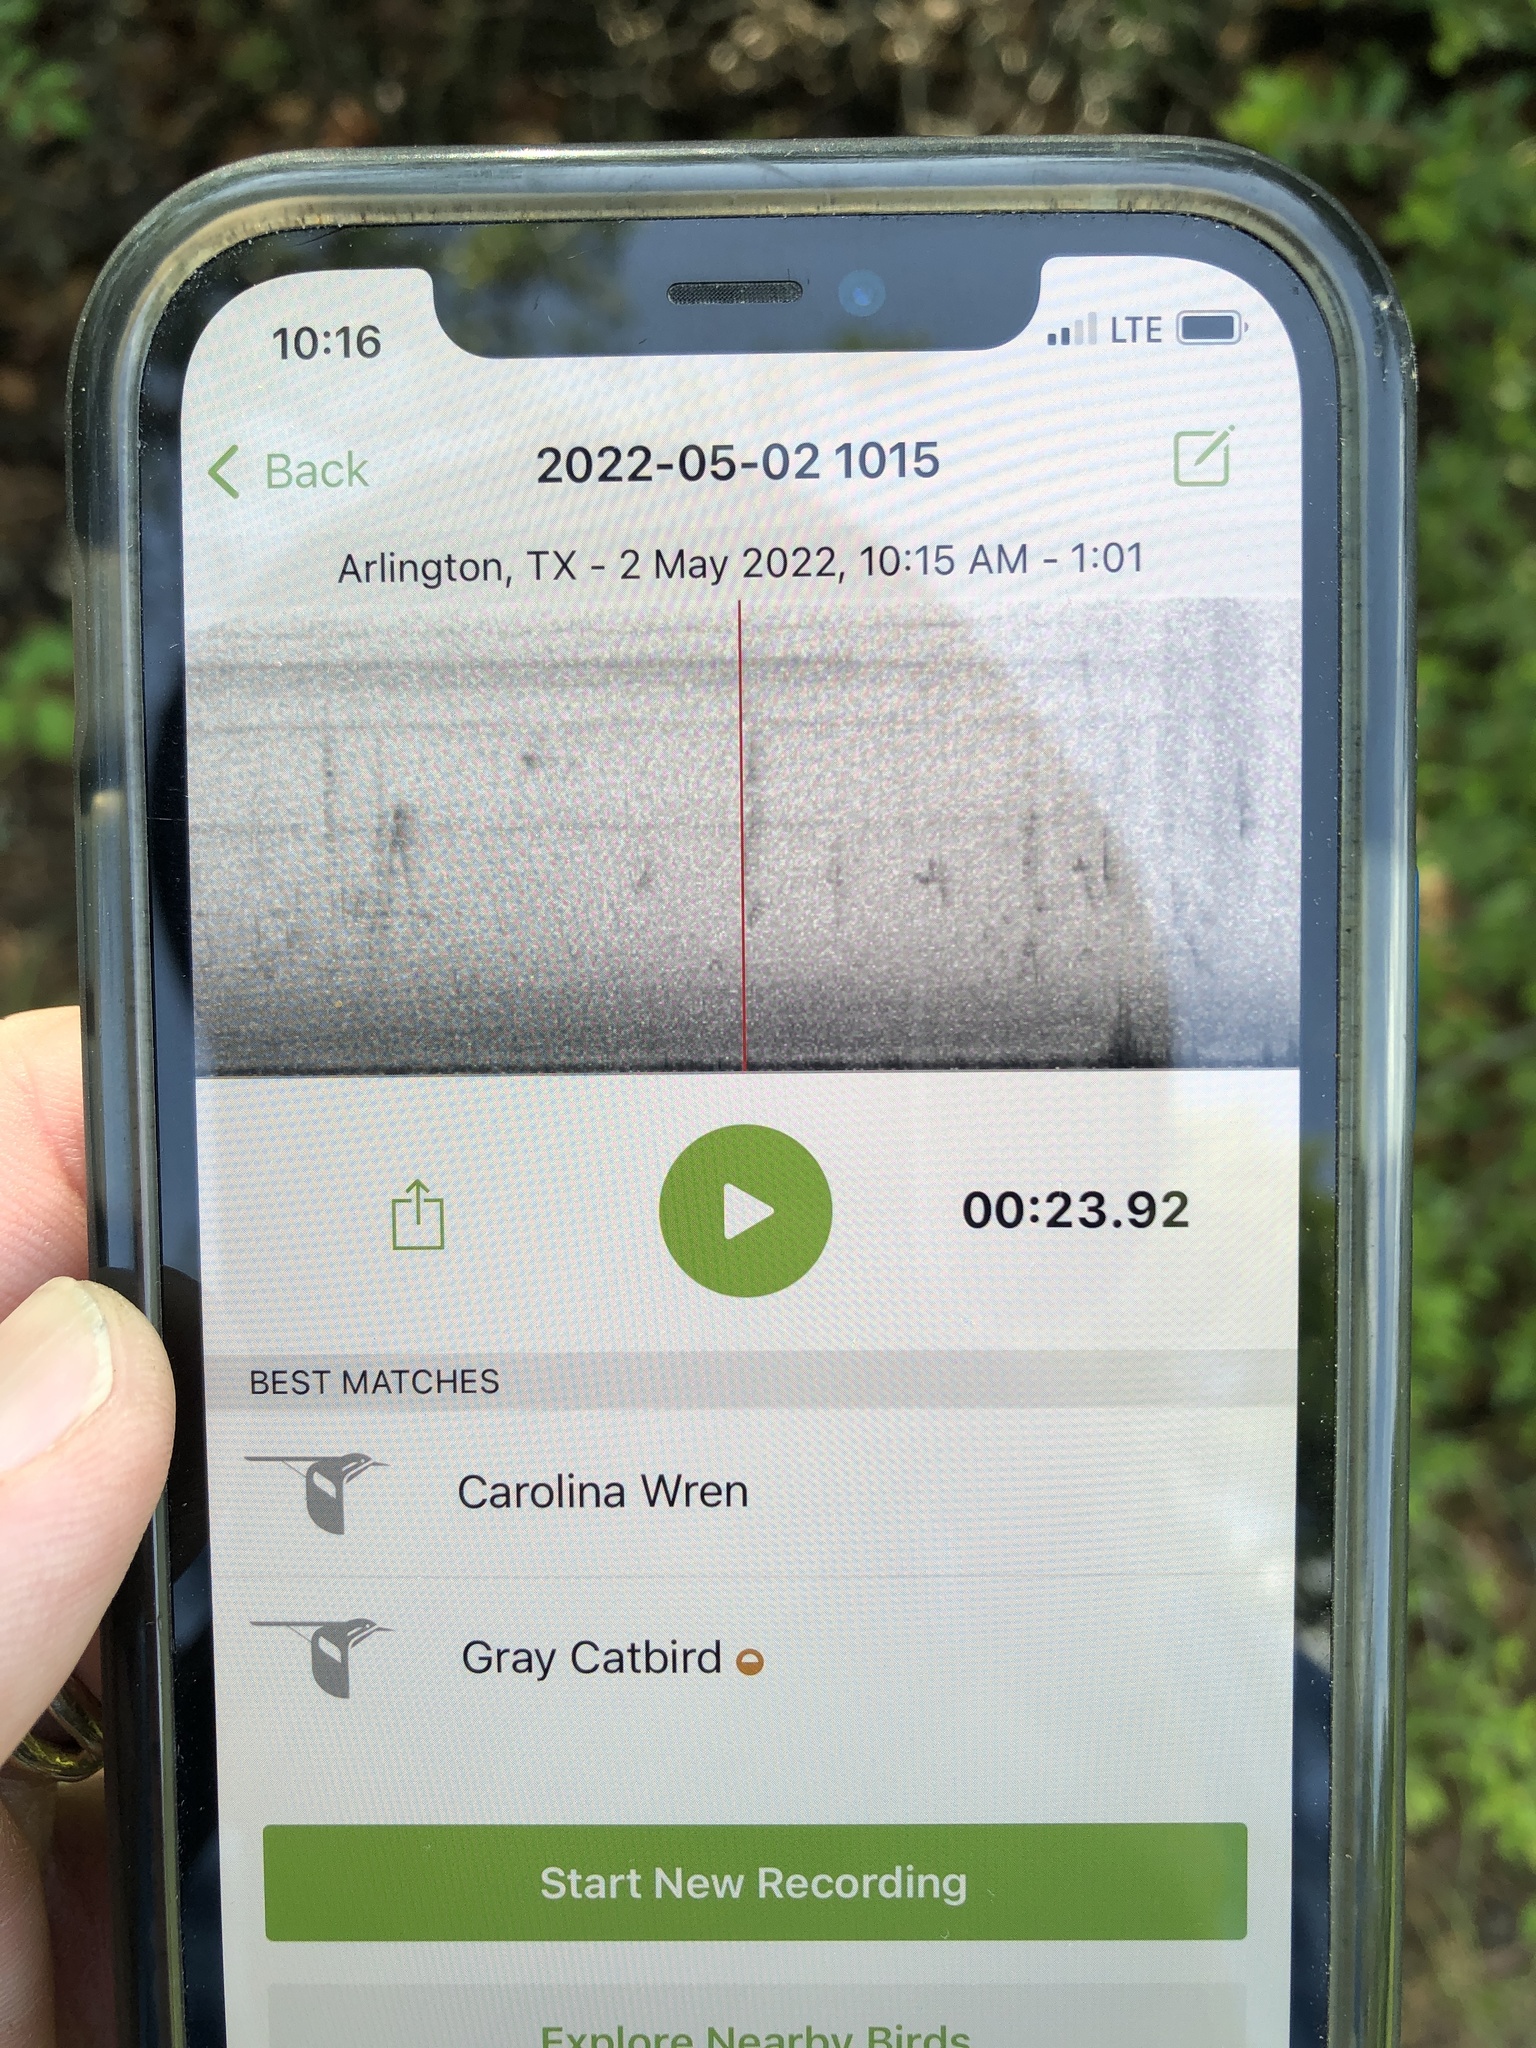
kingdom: Animalia
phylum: Chordata
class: Aves
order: Passeriformes
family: Mimidae
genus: Dumetella
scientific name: Dumetella carolinensis
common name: Gray catbird
